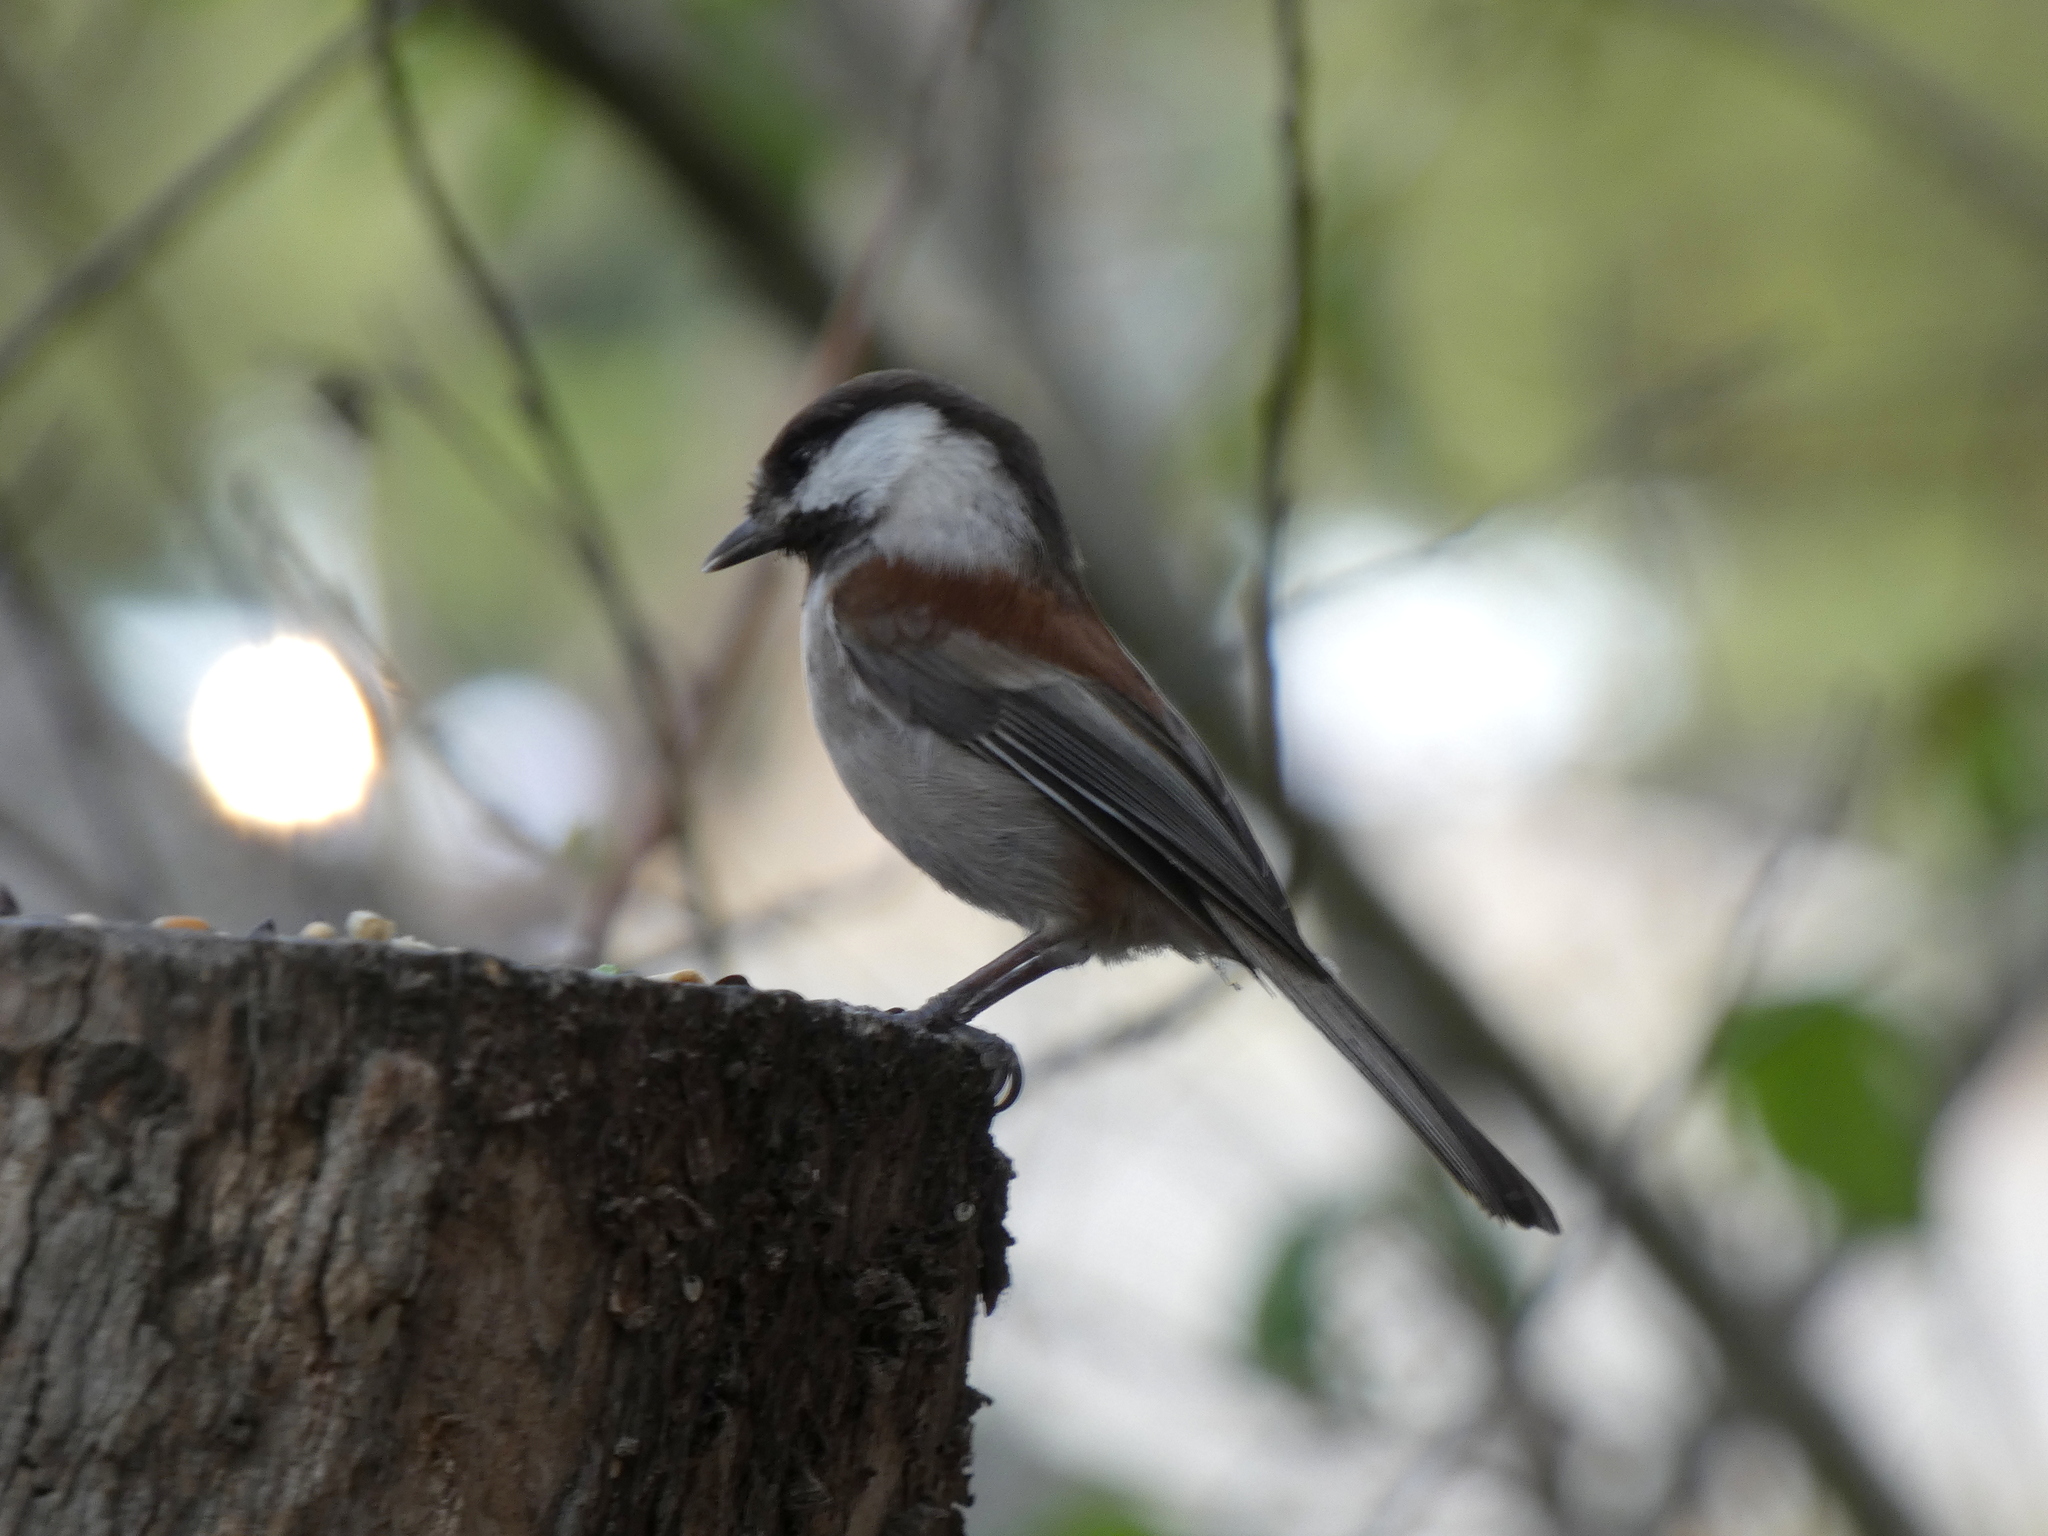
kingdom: Animalia
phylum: Chordata
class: Aves
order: Passeriformes
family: Paridae
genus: Poecile
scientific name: Poecile rufescens
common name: Chestnut-backed chickadee
